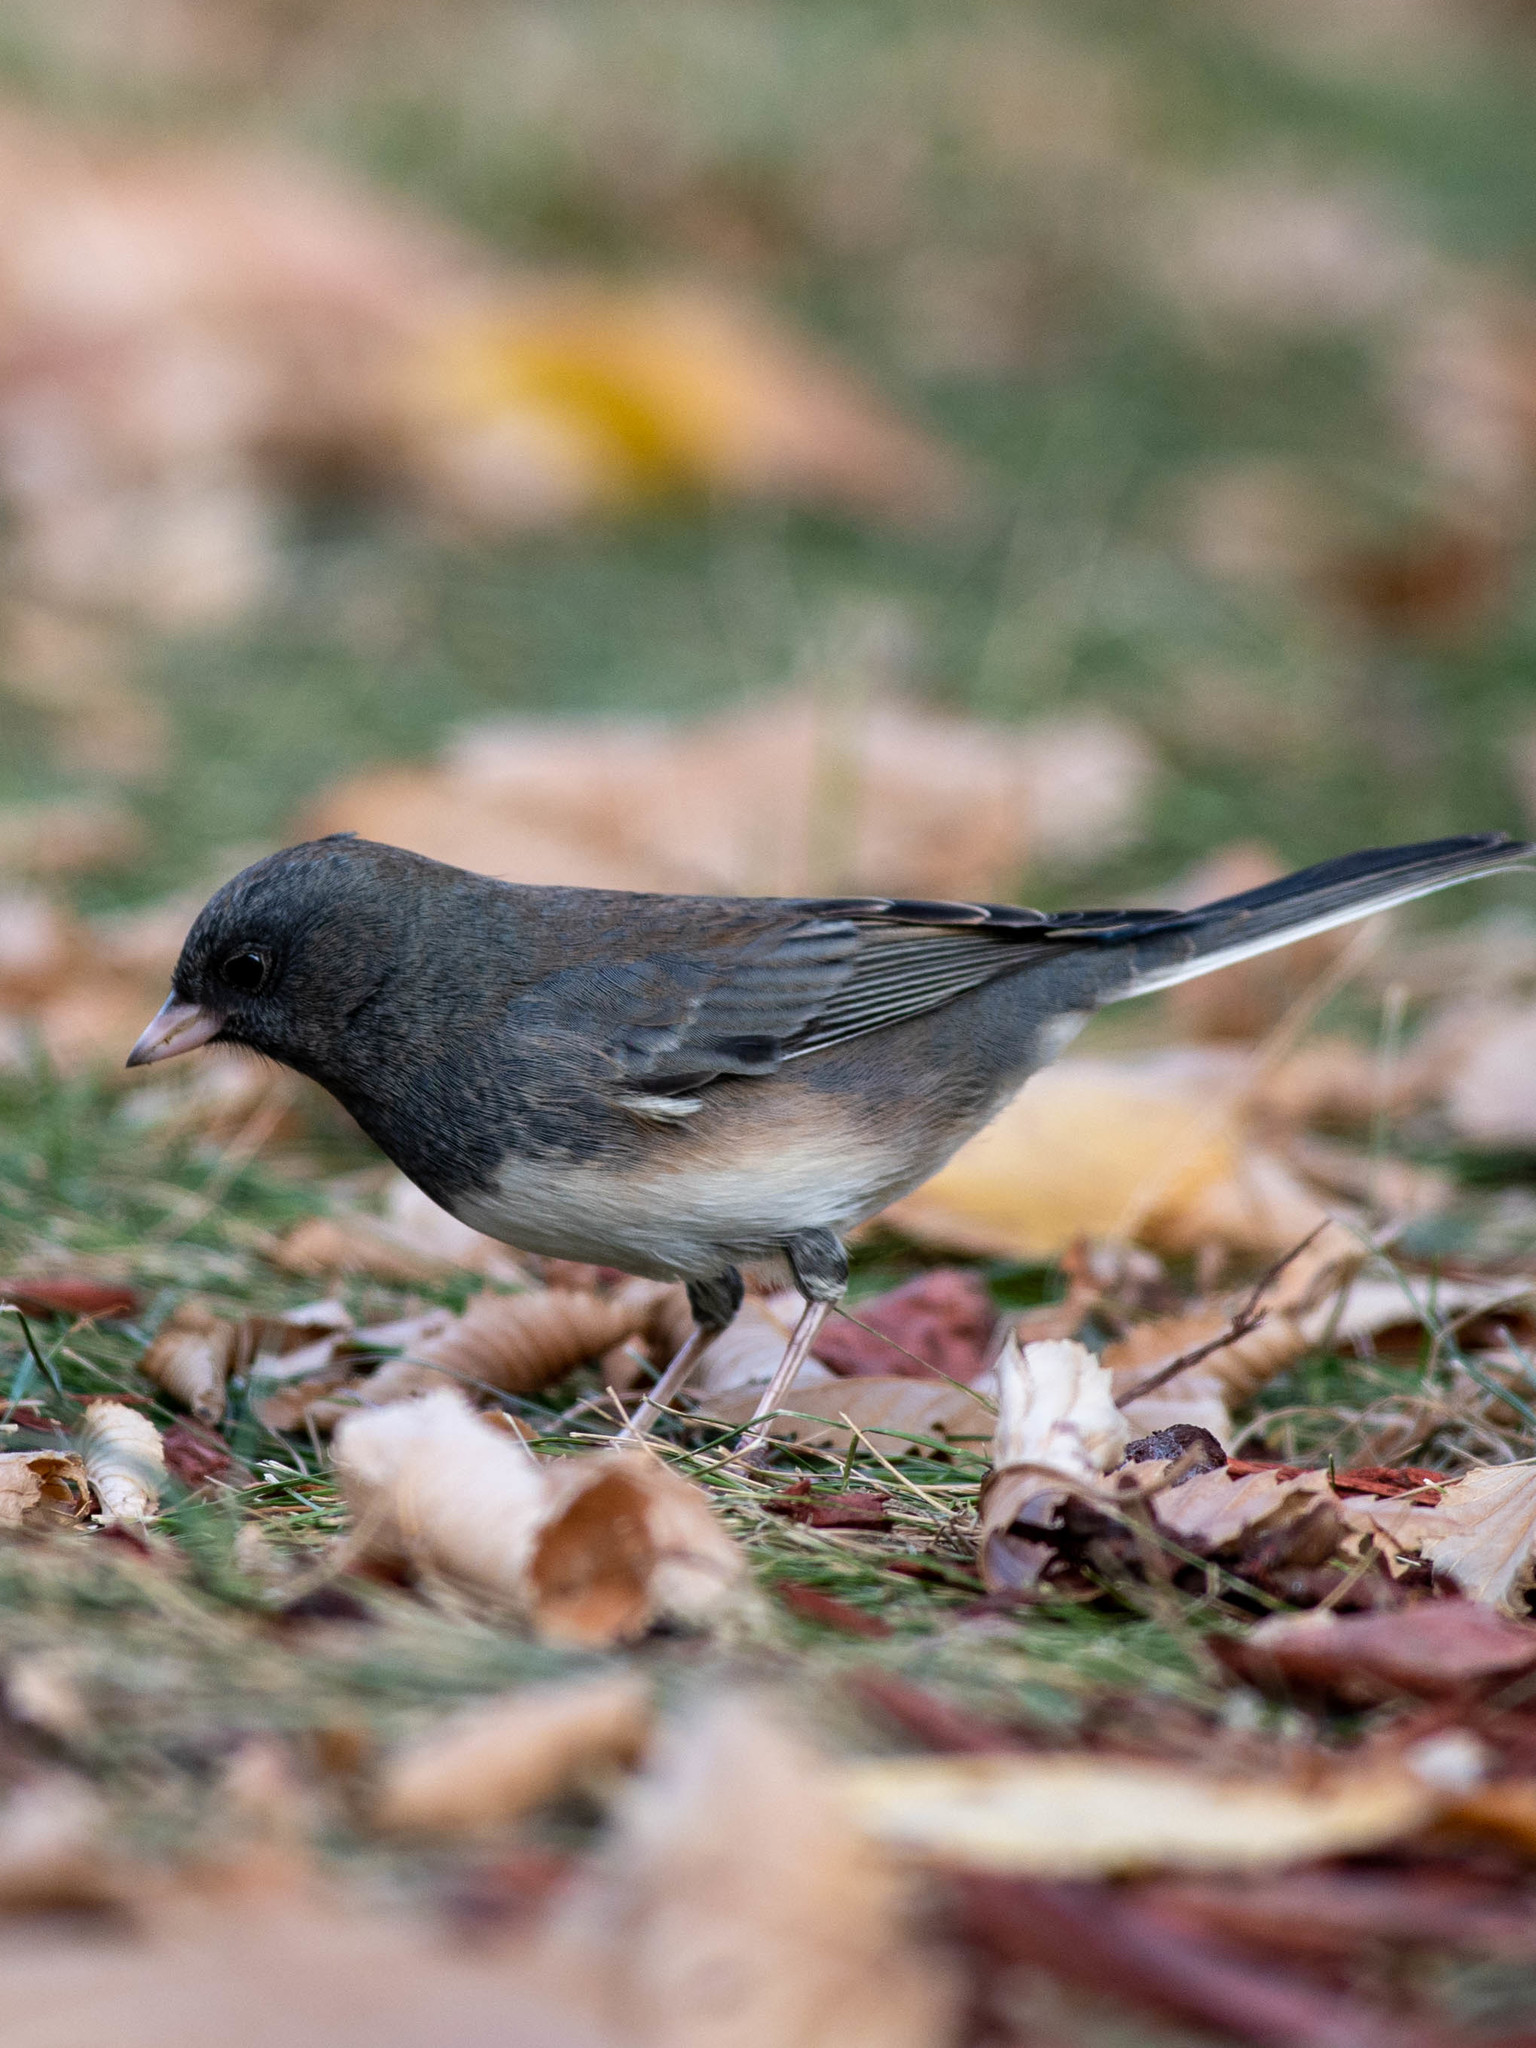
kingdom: Animalia
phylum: Chordata
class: Aves
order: Passeriformes
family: Passerellidae
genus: Junco
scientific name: Junco hyemalis
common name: Dark-eyed junco
